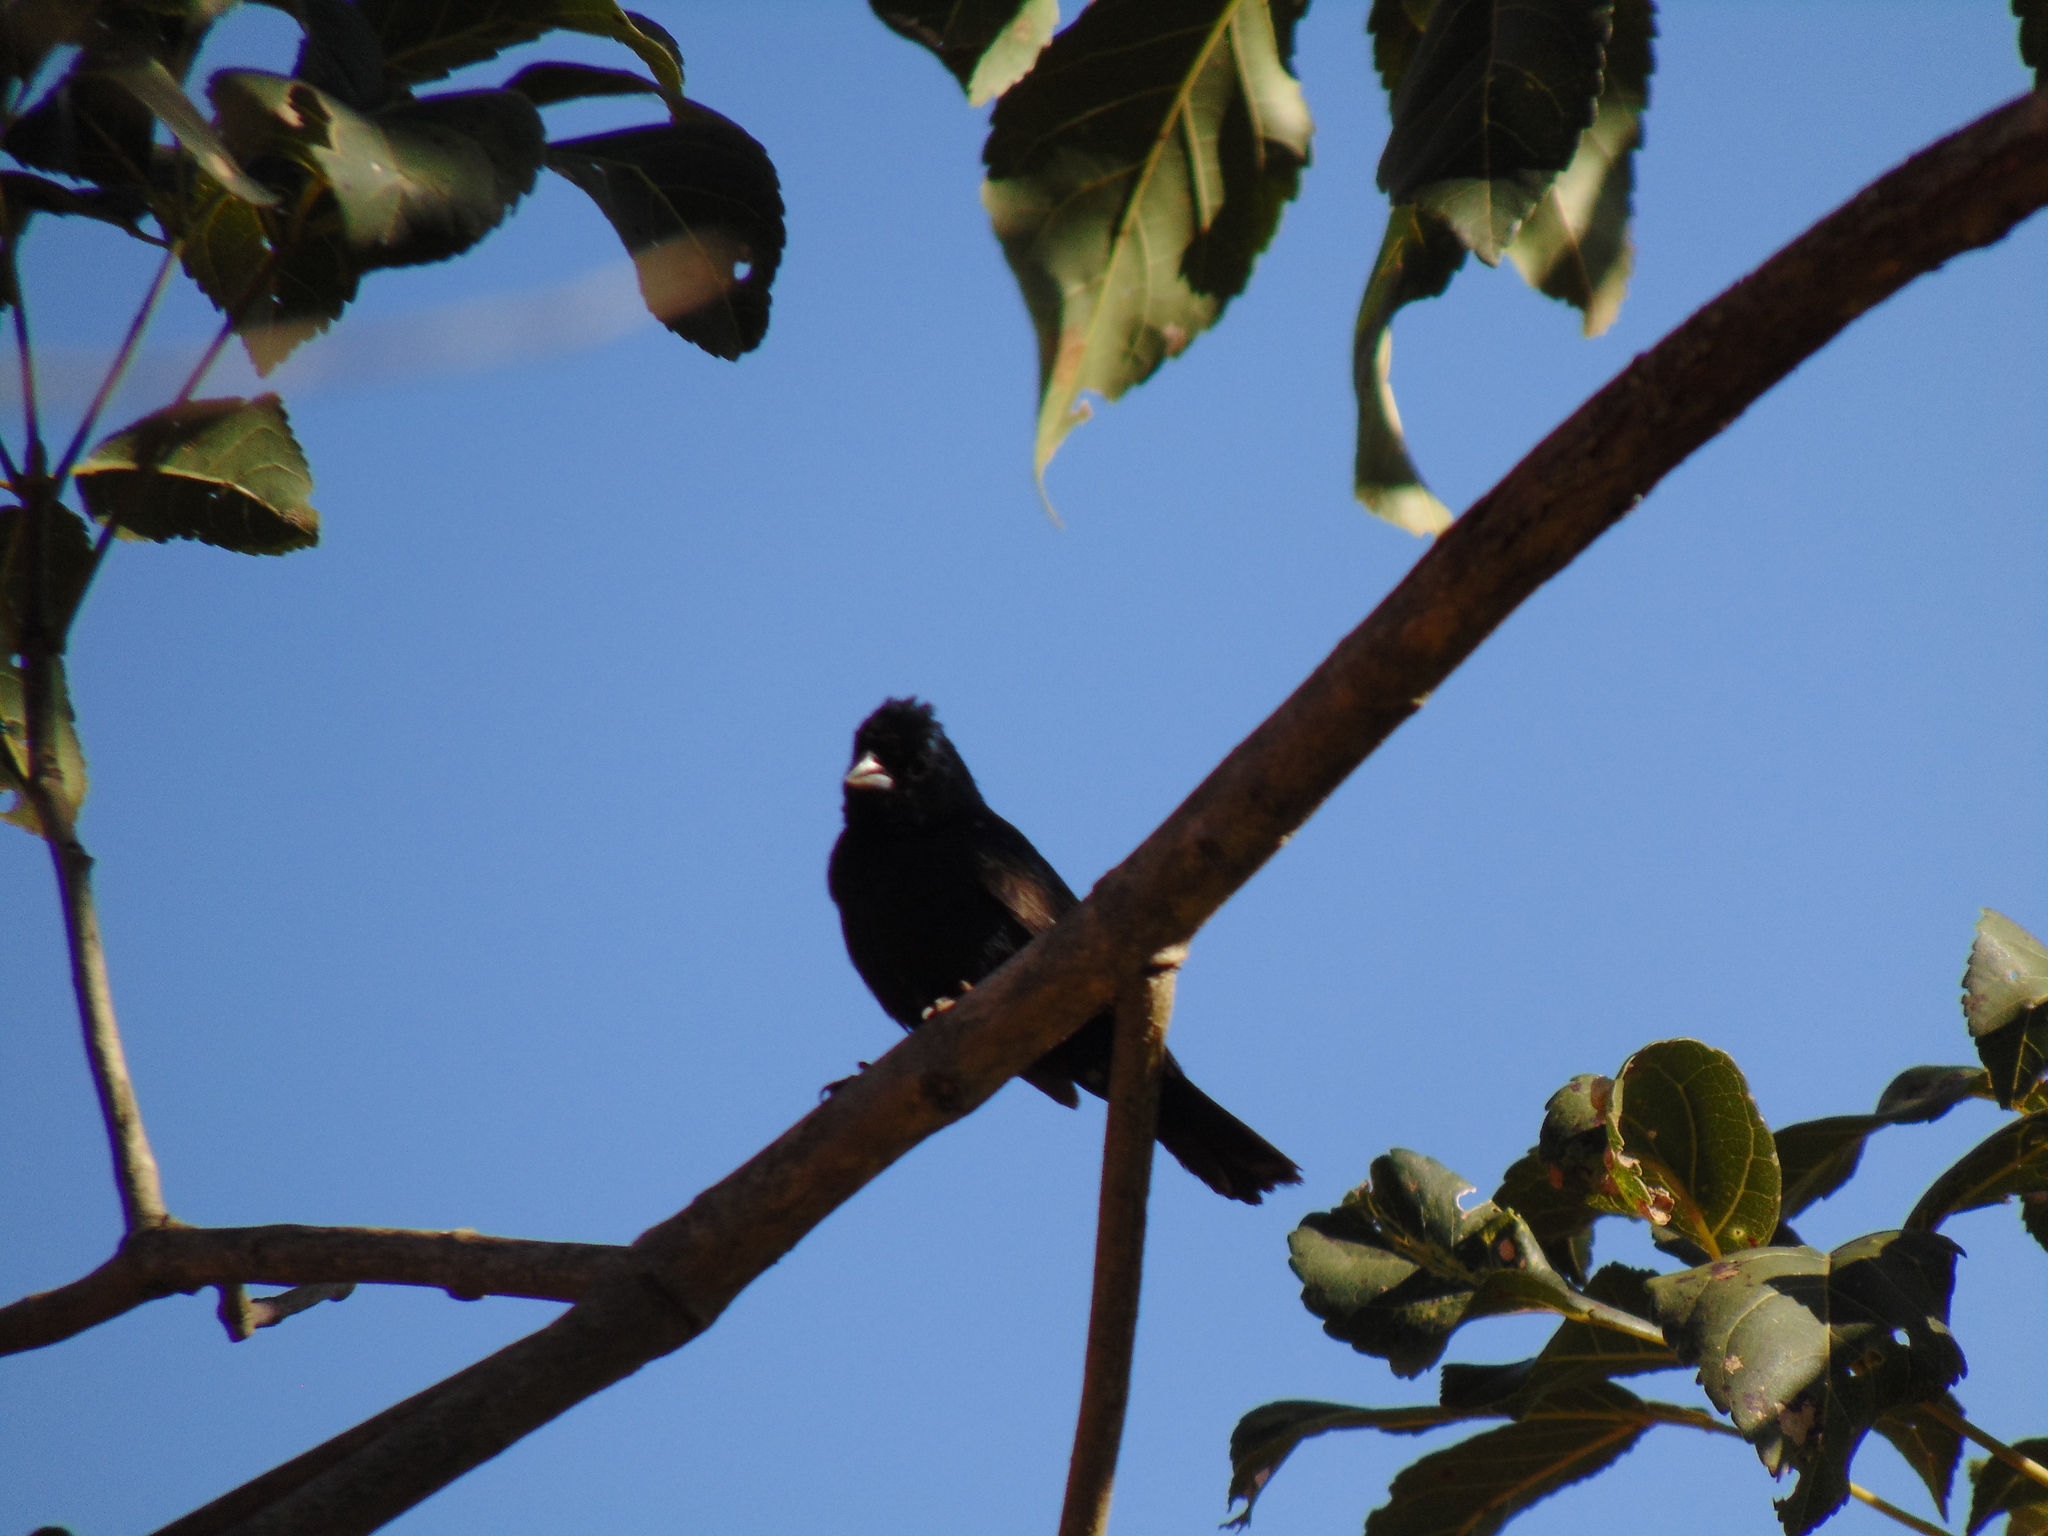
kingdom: Animalia
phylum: Chordata
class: Aves
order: Passeriformes
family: Thraupidae
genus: Volatinia
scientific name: Volatinia jacarina
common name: Blue-black grassquit
